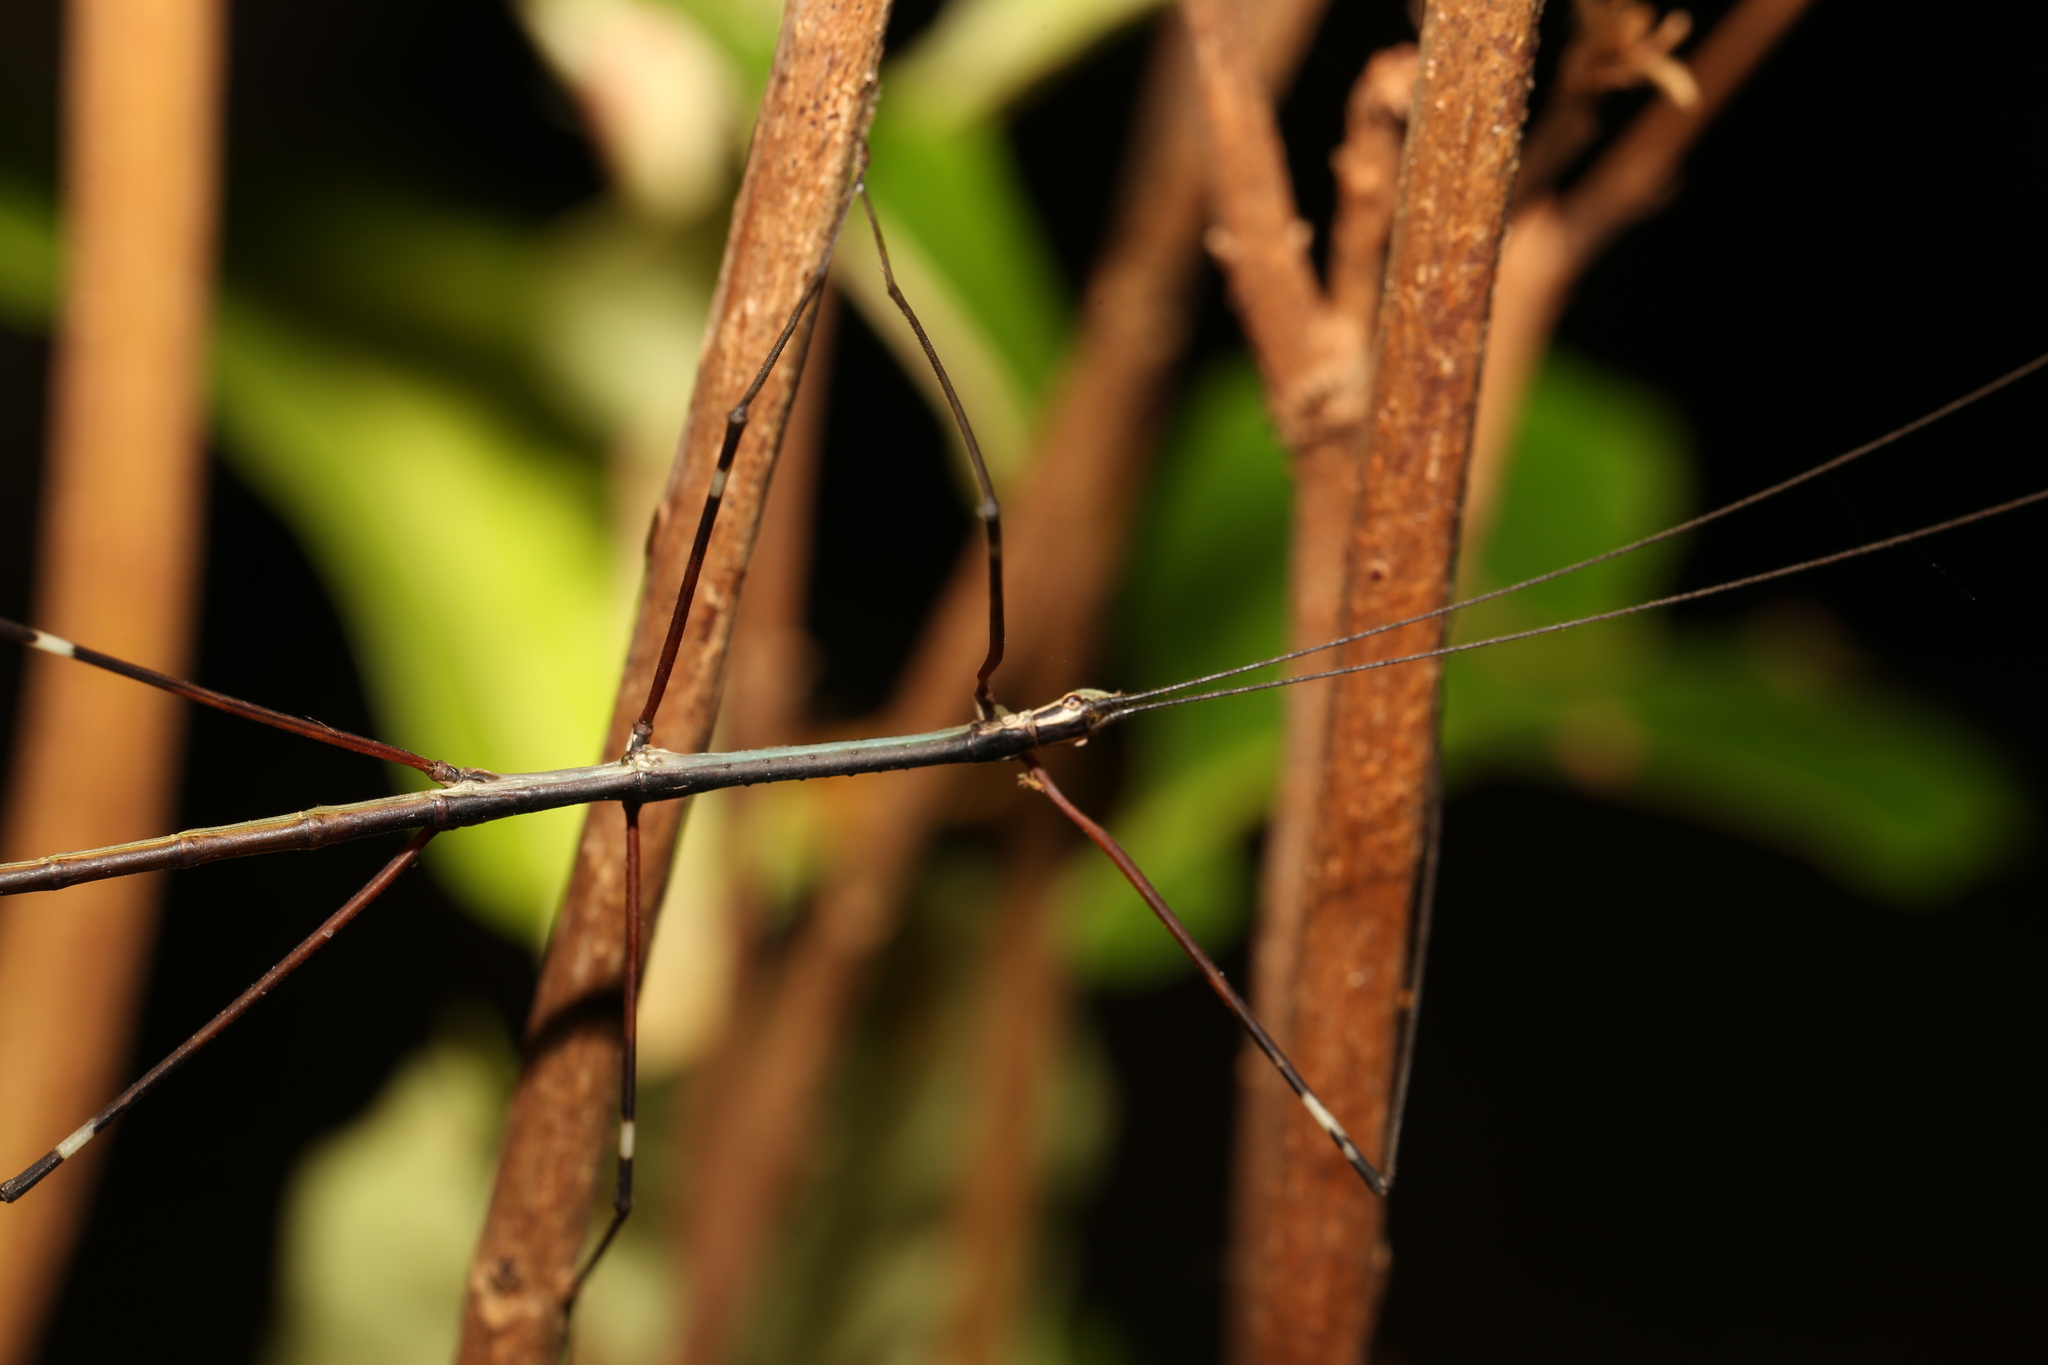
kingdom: Animalia
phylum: Arthropoda
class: Insecta
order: Phasmida
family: Lonchodidae
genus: Candovia
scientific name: Candovia annulata
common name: Banded-legged stick-insect
